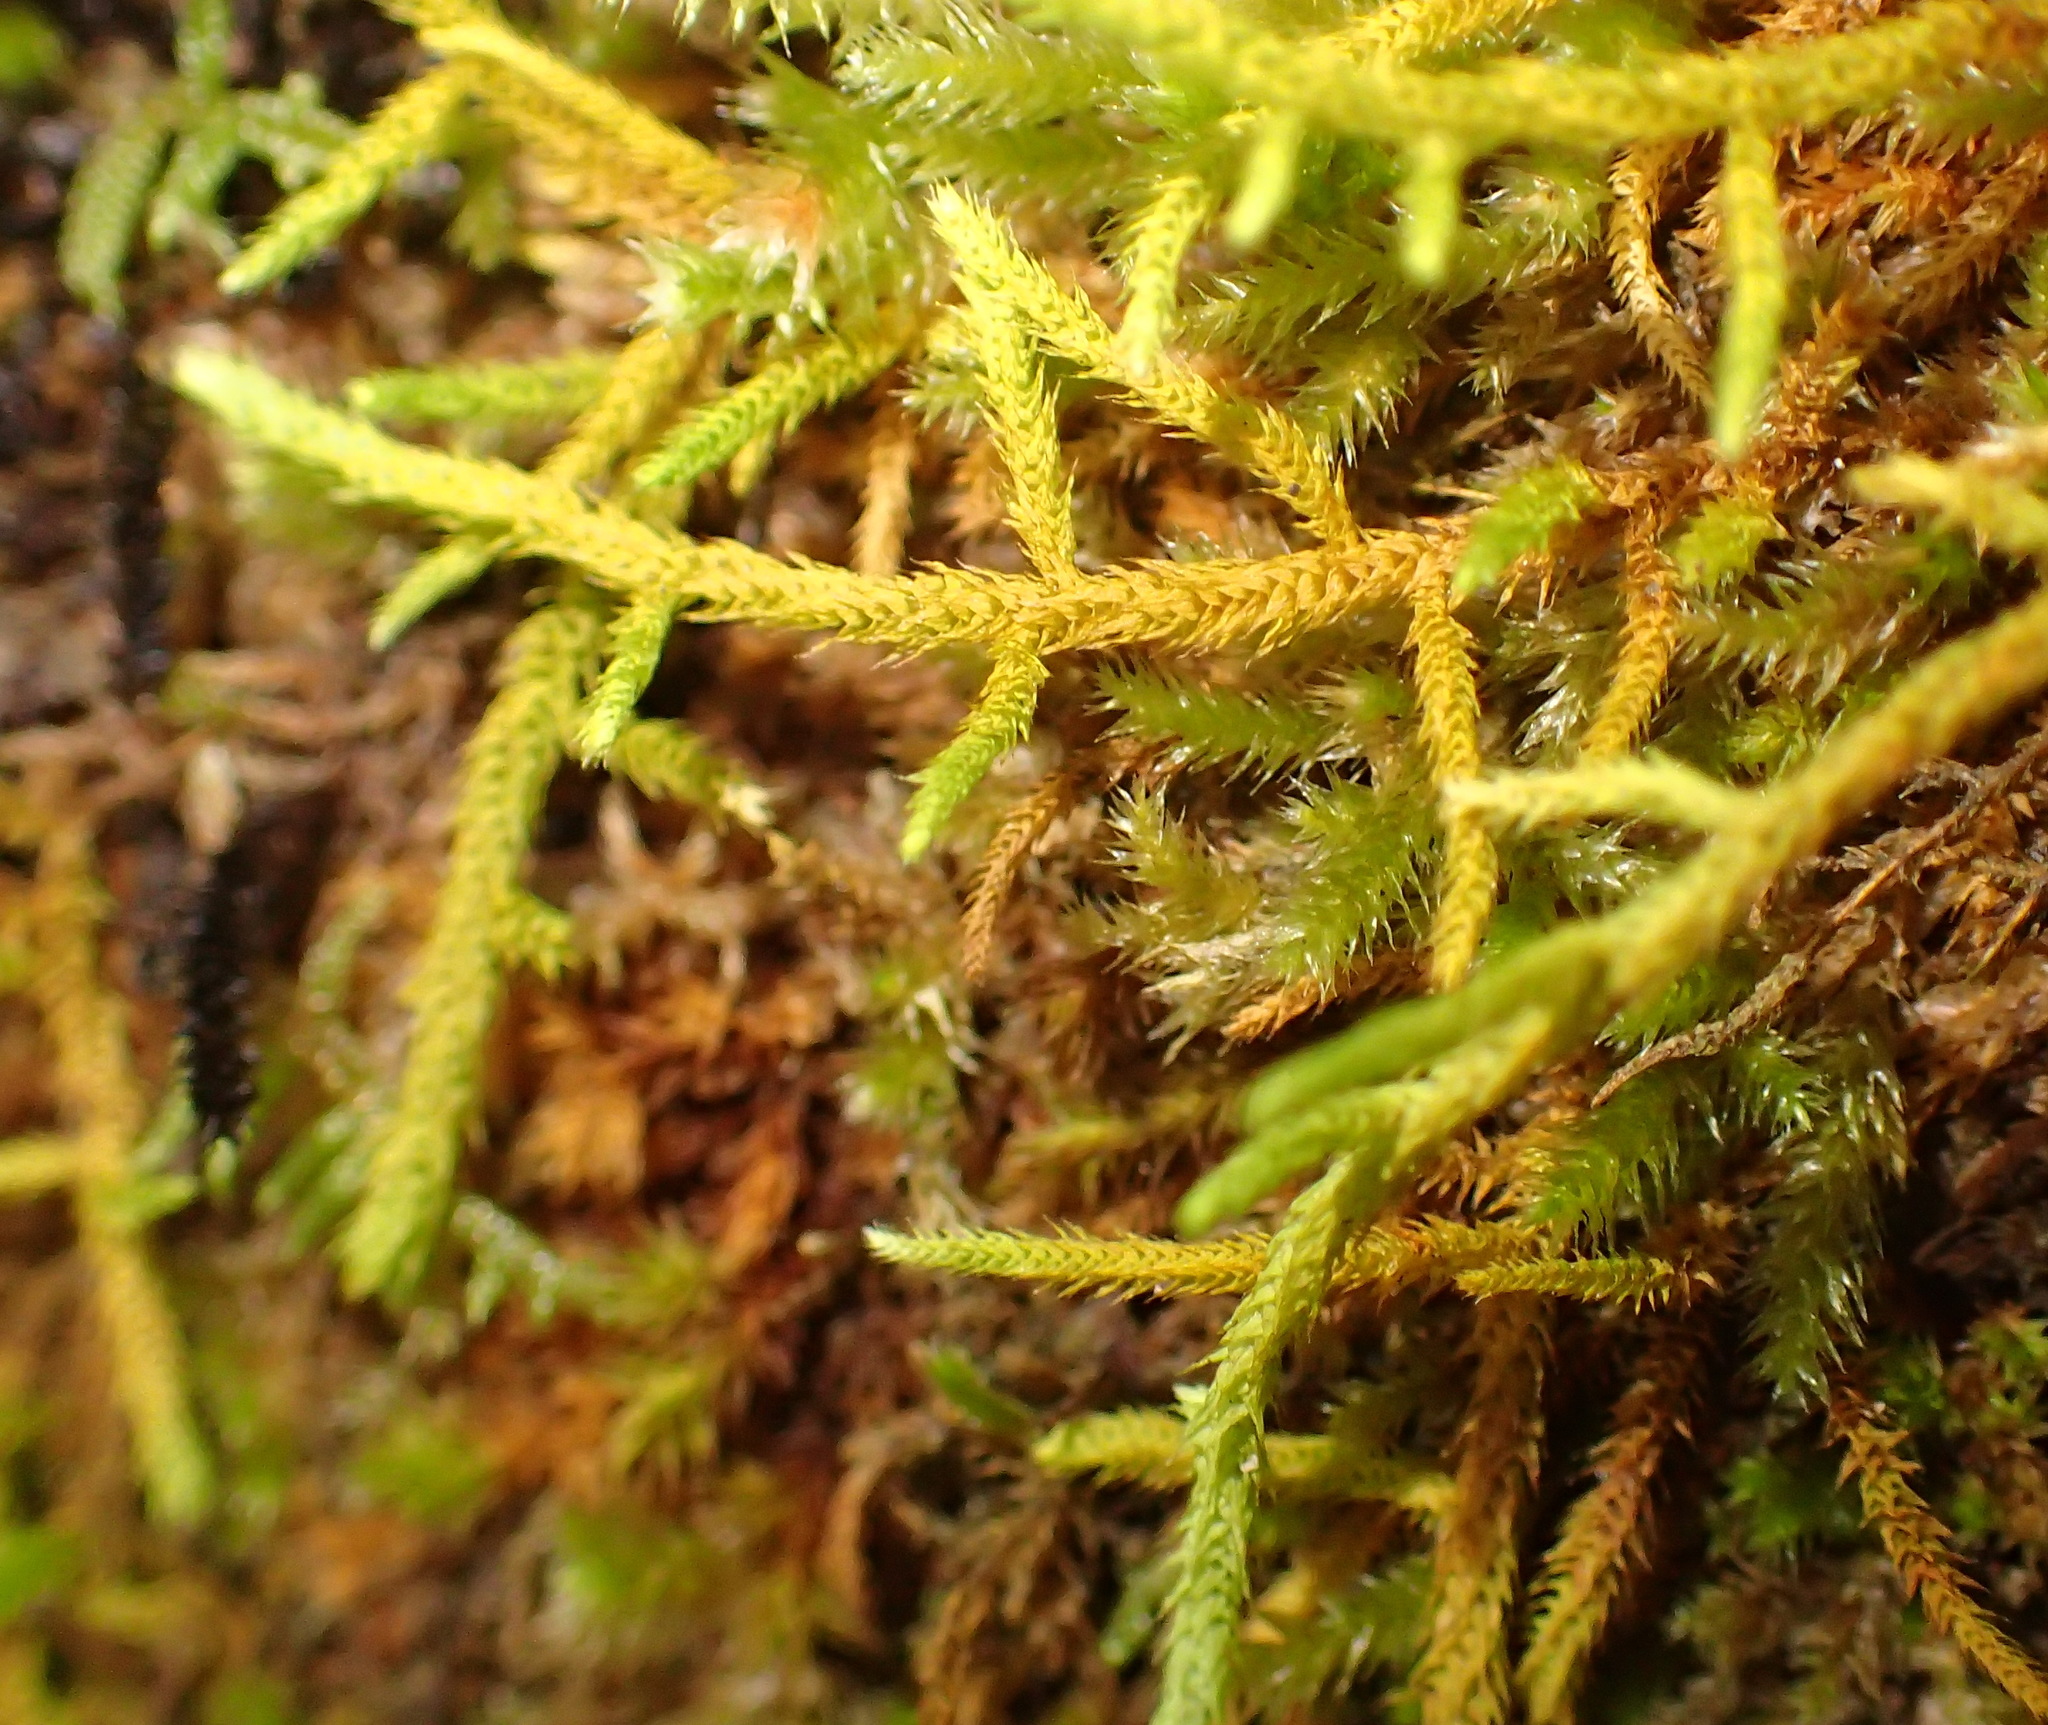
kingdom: Plantae
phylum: Bryophyta
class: Bryopsida
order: Hypnales
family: Meteoriaceae
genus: Papillaria
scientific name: Papillaria africana
